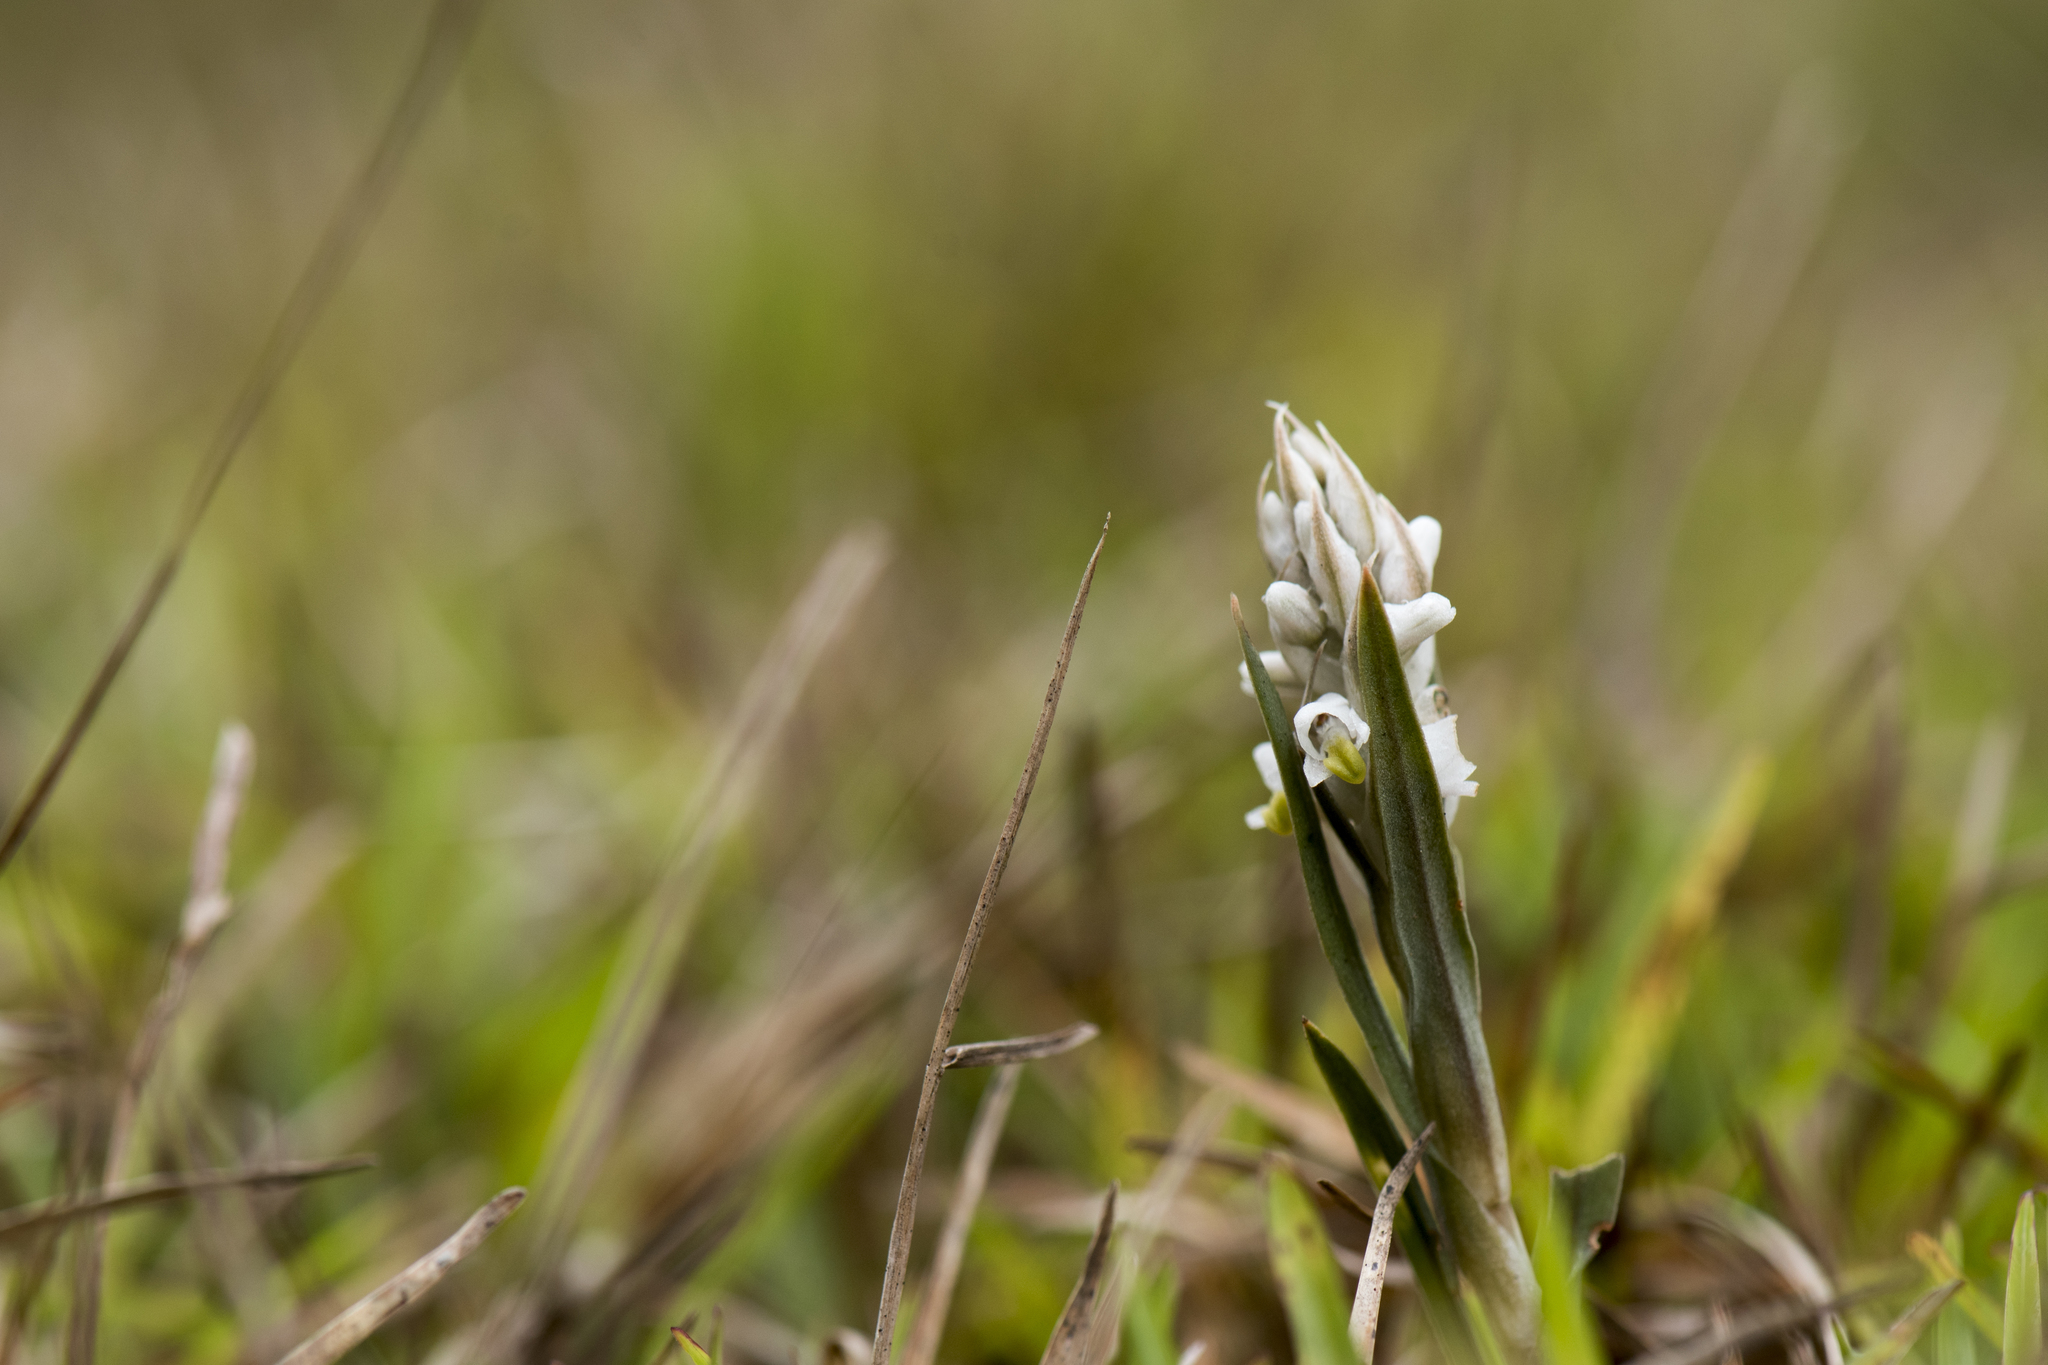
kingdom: Plantae
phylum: Tracheophyta
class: Liliopsida
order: Asparagales
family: Orchidaceae
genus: Zeuxine
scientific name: Zeuxine strateumatica
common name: Soldier's orchid
